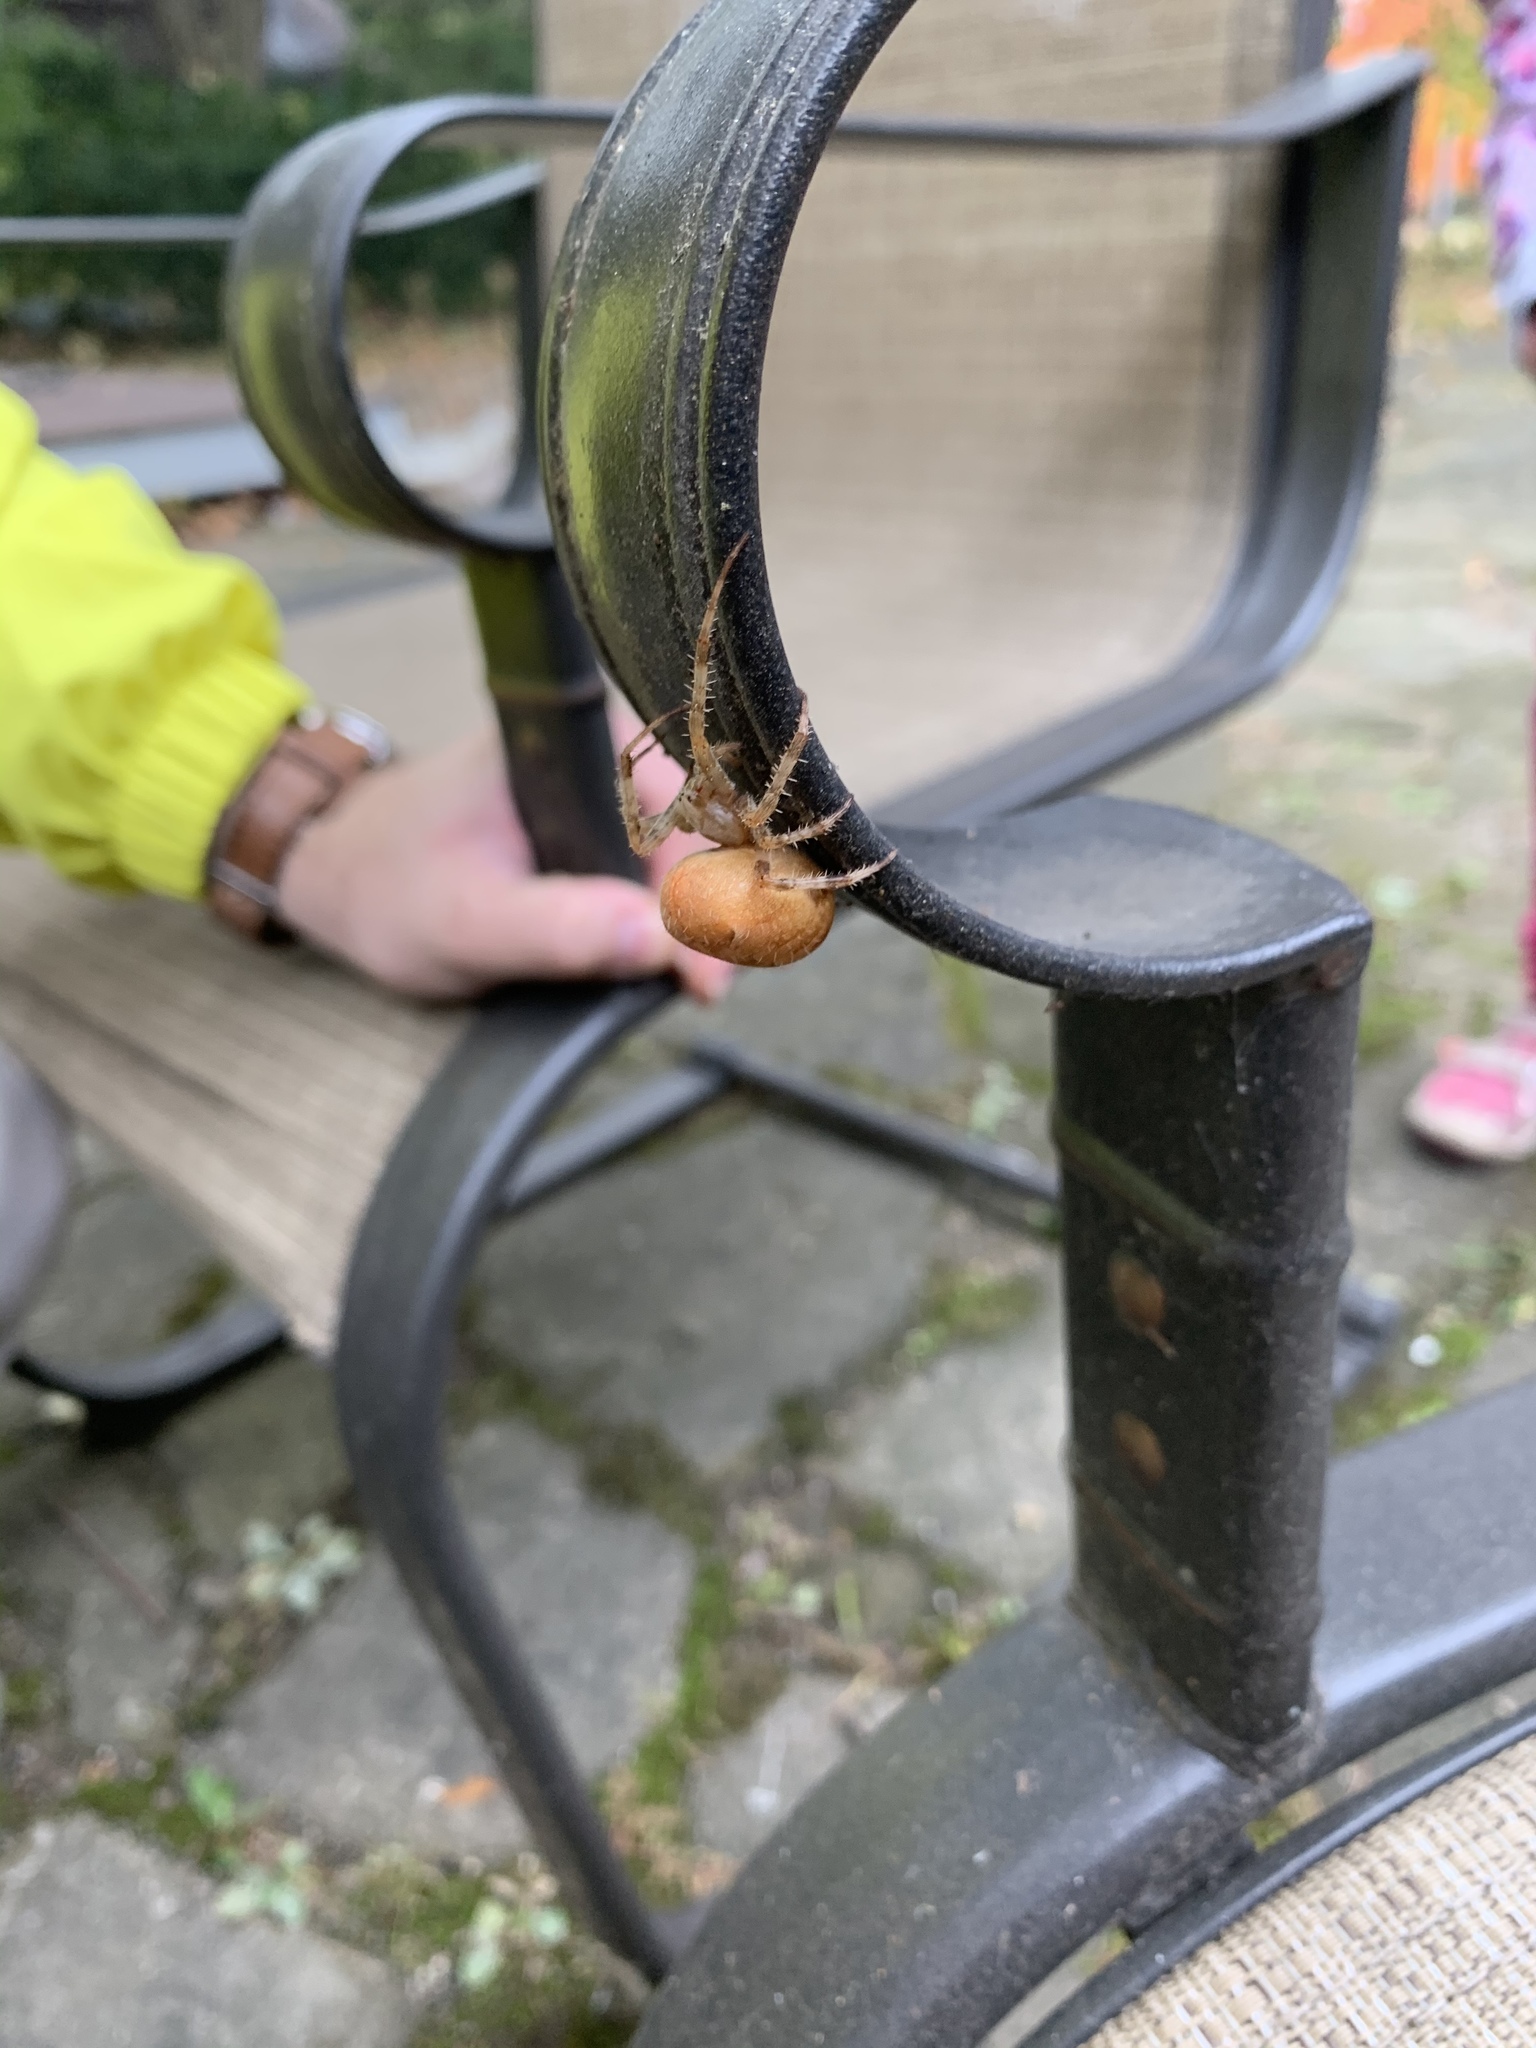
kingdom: Animalia
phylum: Arthropoda
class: Arachnida
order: Araneae
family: Araneidae
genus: Araneus
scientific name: Araneus diadematus
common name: Cross orbweaver
